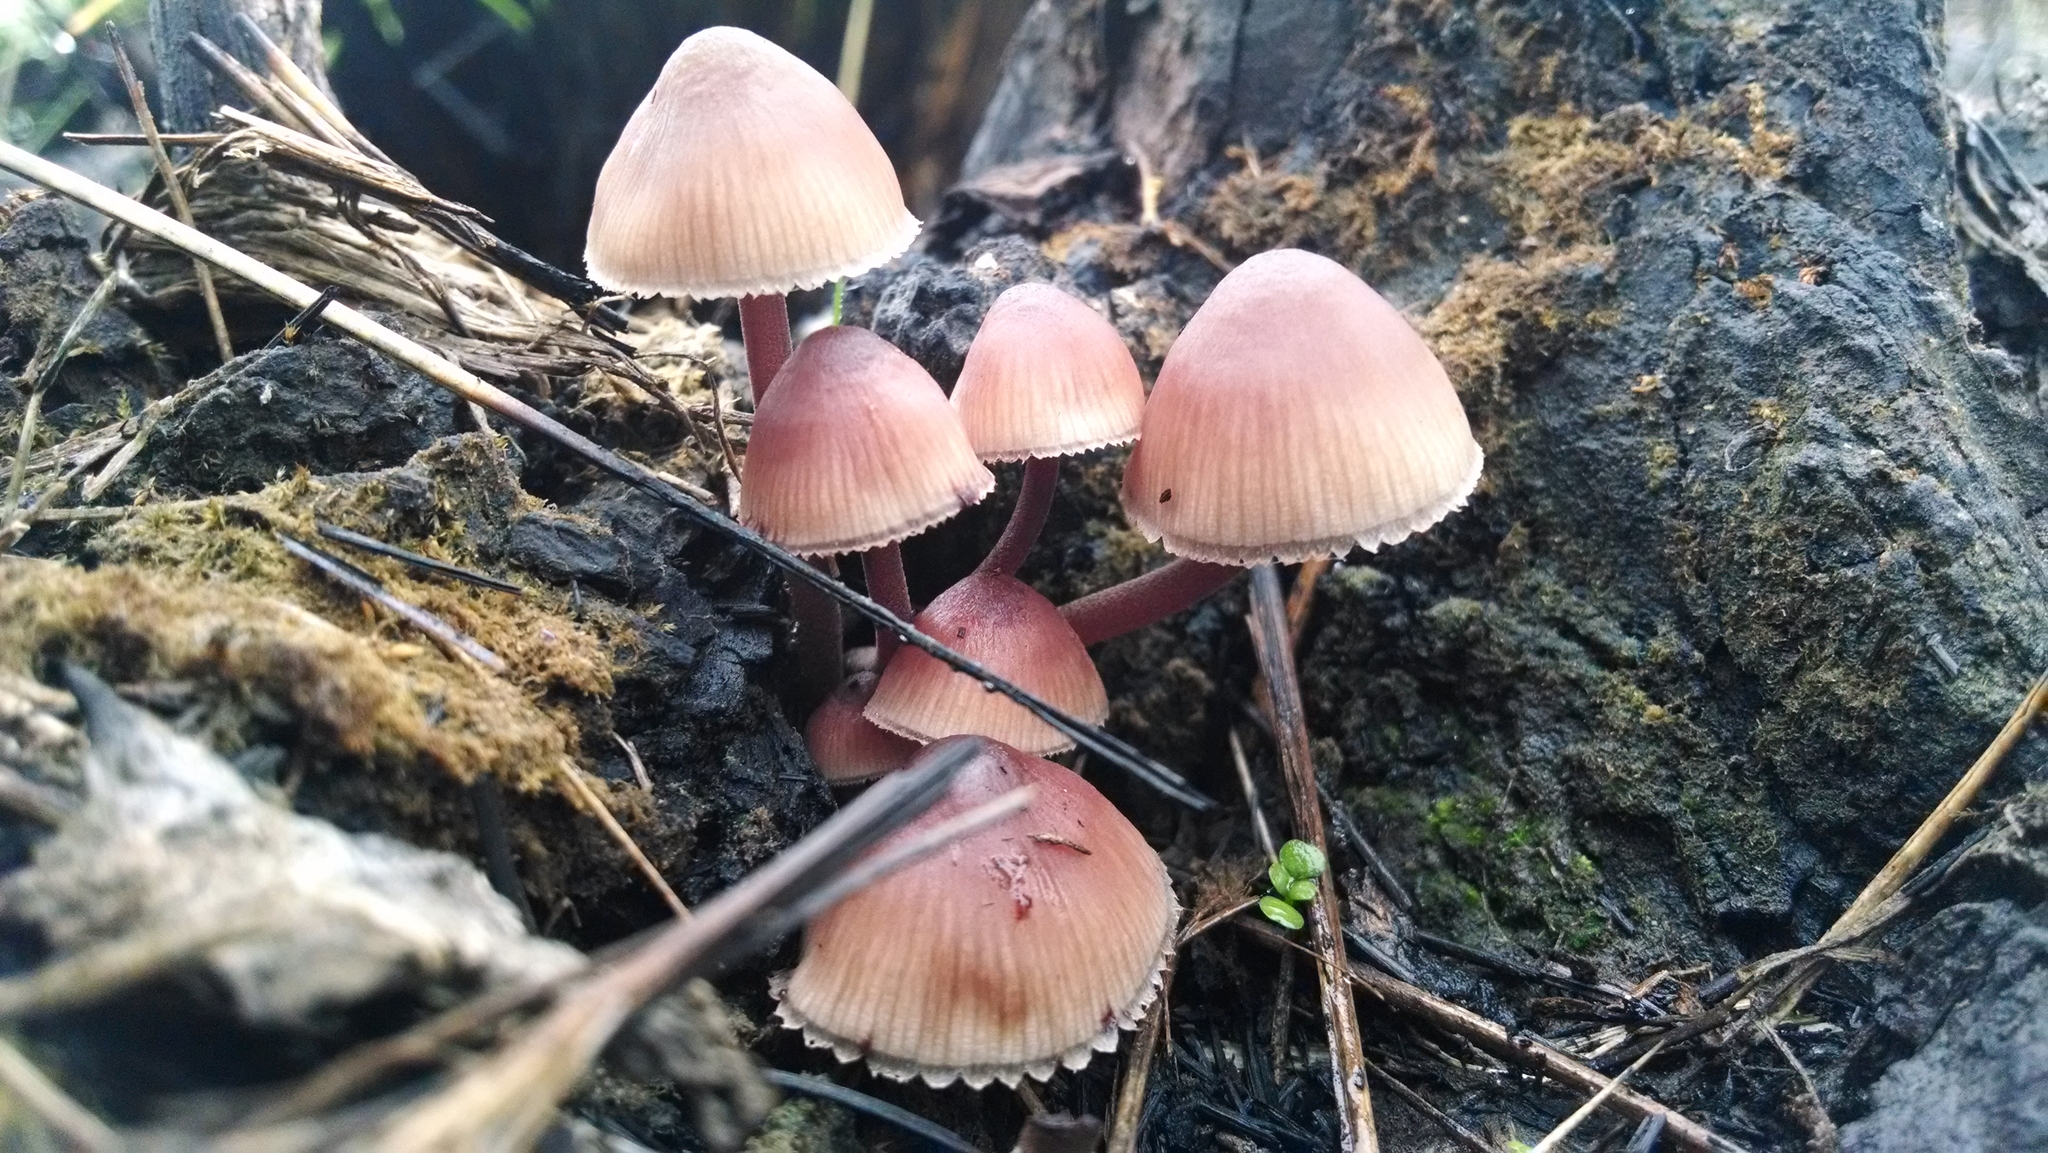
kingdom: Fungi
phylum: Basidiomycota
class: Agaricomycetes
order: Agaricales
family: Mycenaceae
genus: Mycena
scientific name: Mycena haematopus
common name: Burgundydrop bonnet
